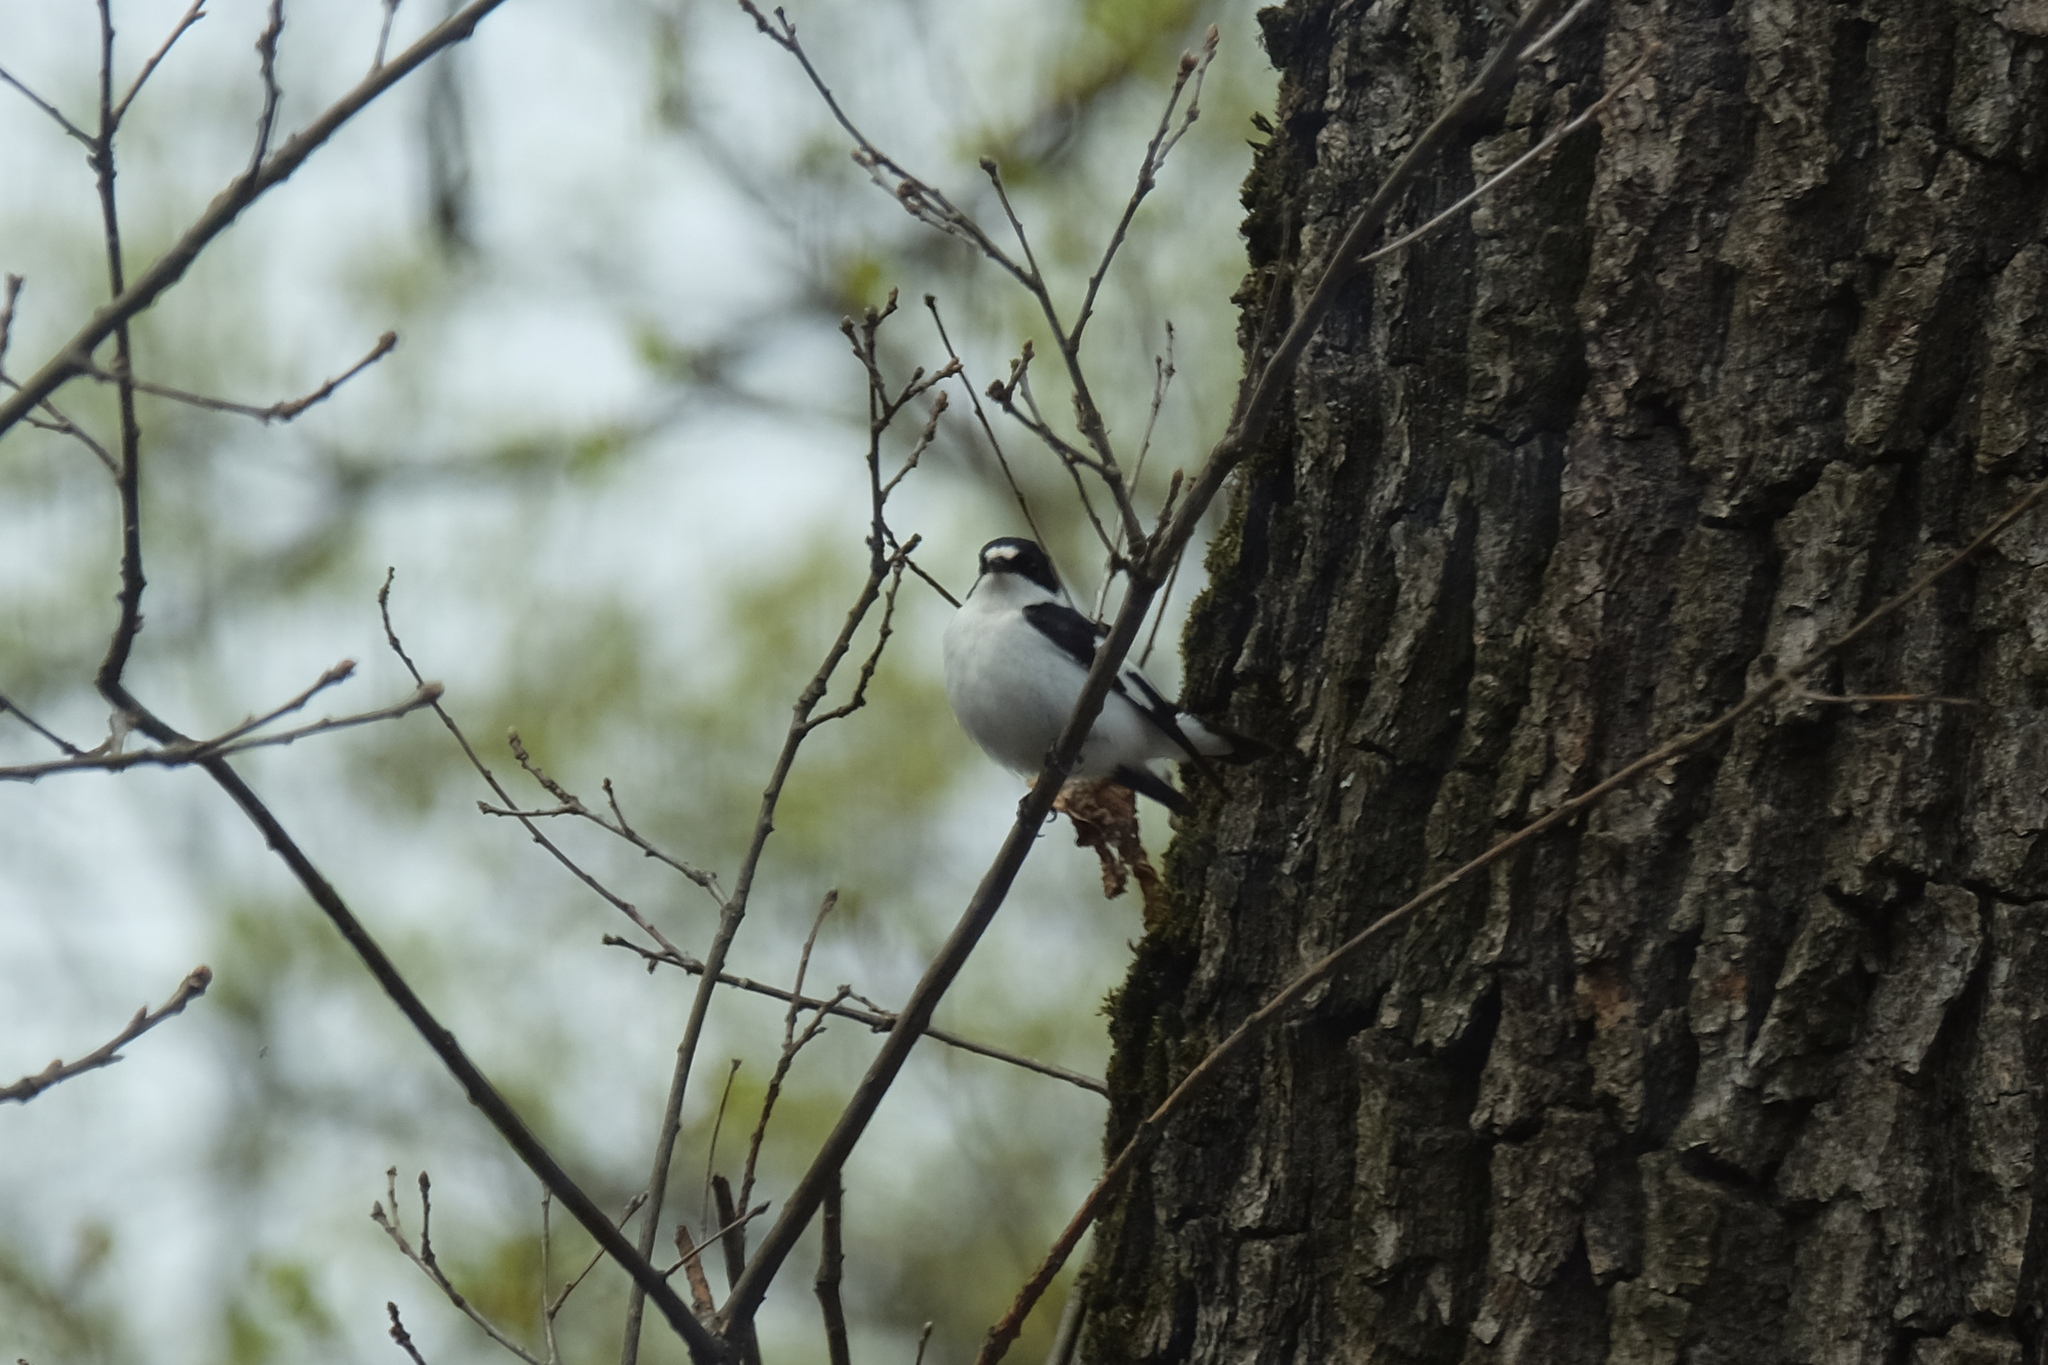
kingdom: Animalia
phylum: Chordata
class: Aves
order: Passeriformes
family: Muscicapidae
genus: Ficedula
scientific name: Ficedula albicollis
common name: Collared flycatcher
